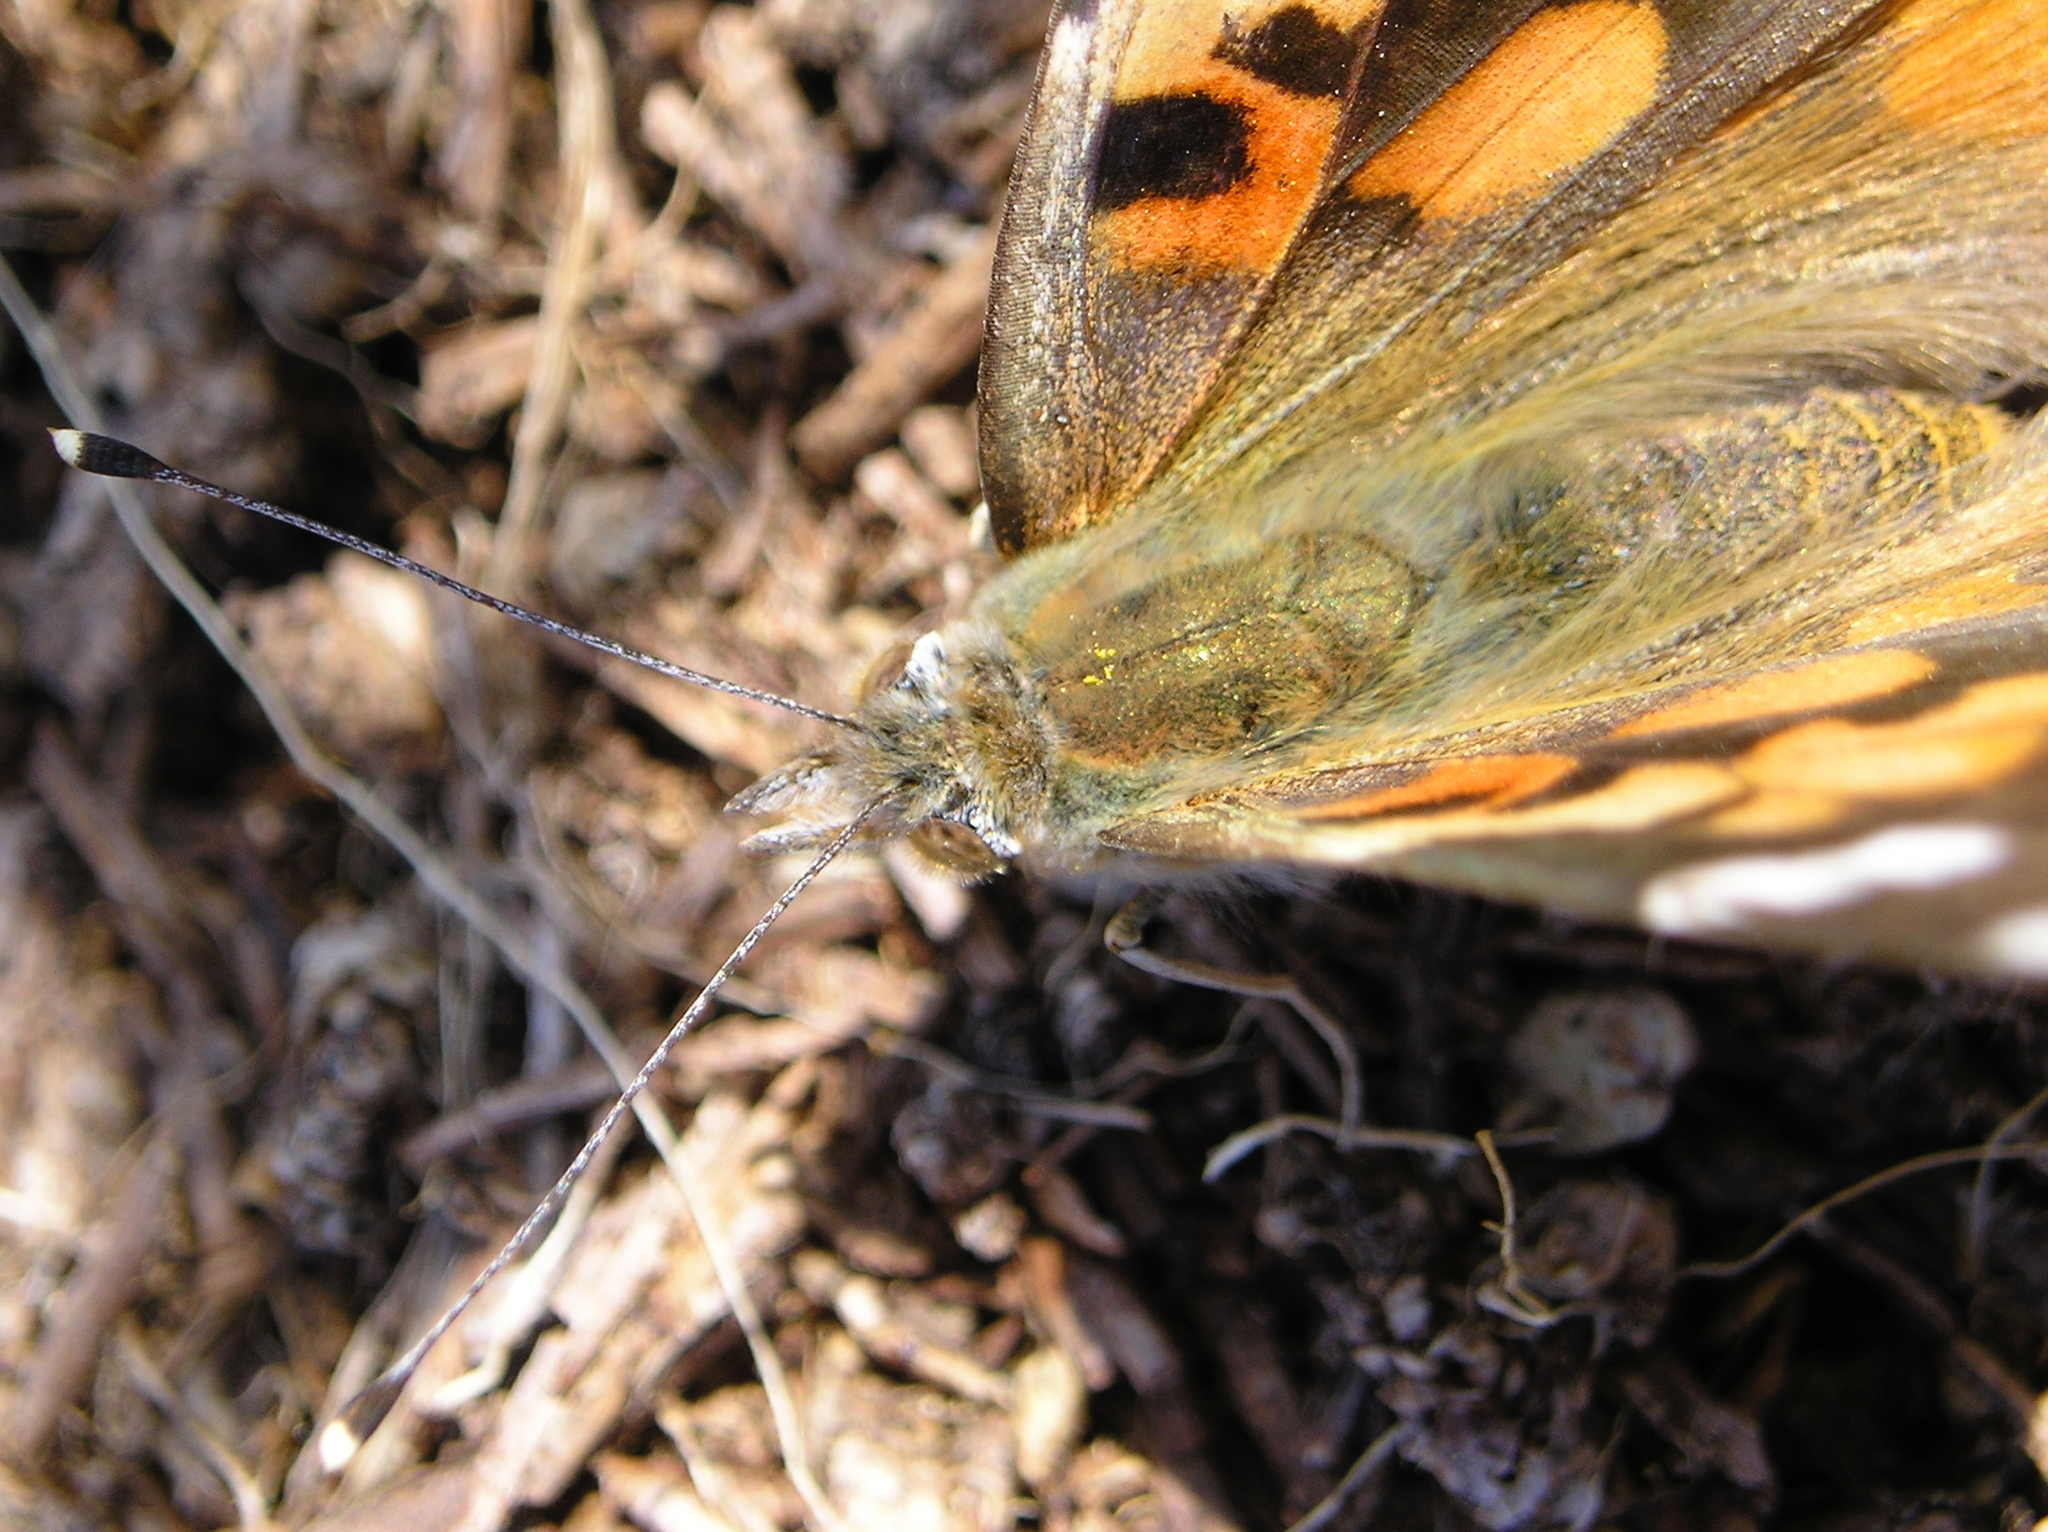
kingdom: Animalia
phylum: Arthropoda
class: Insecta
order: Lepidoptera
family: Nymphalidae
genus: Vanessa
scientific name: Vanessa cardui
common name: Painted lady
